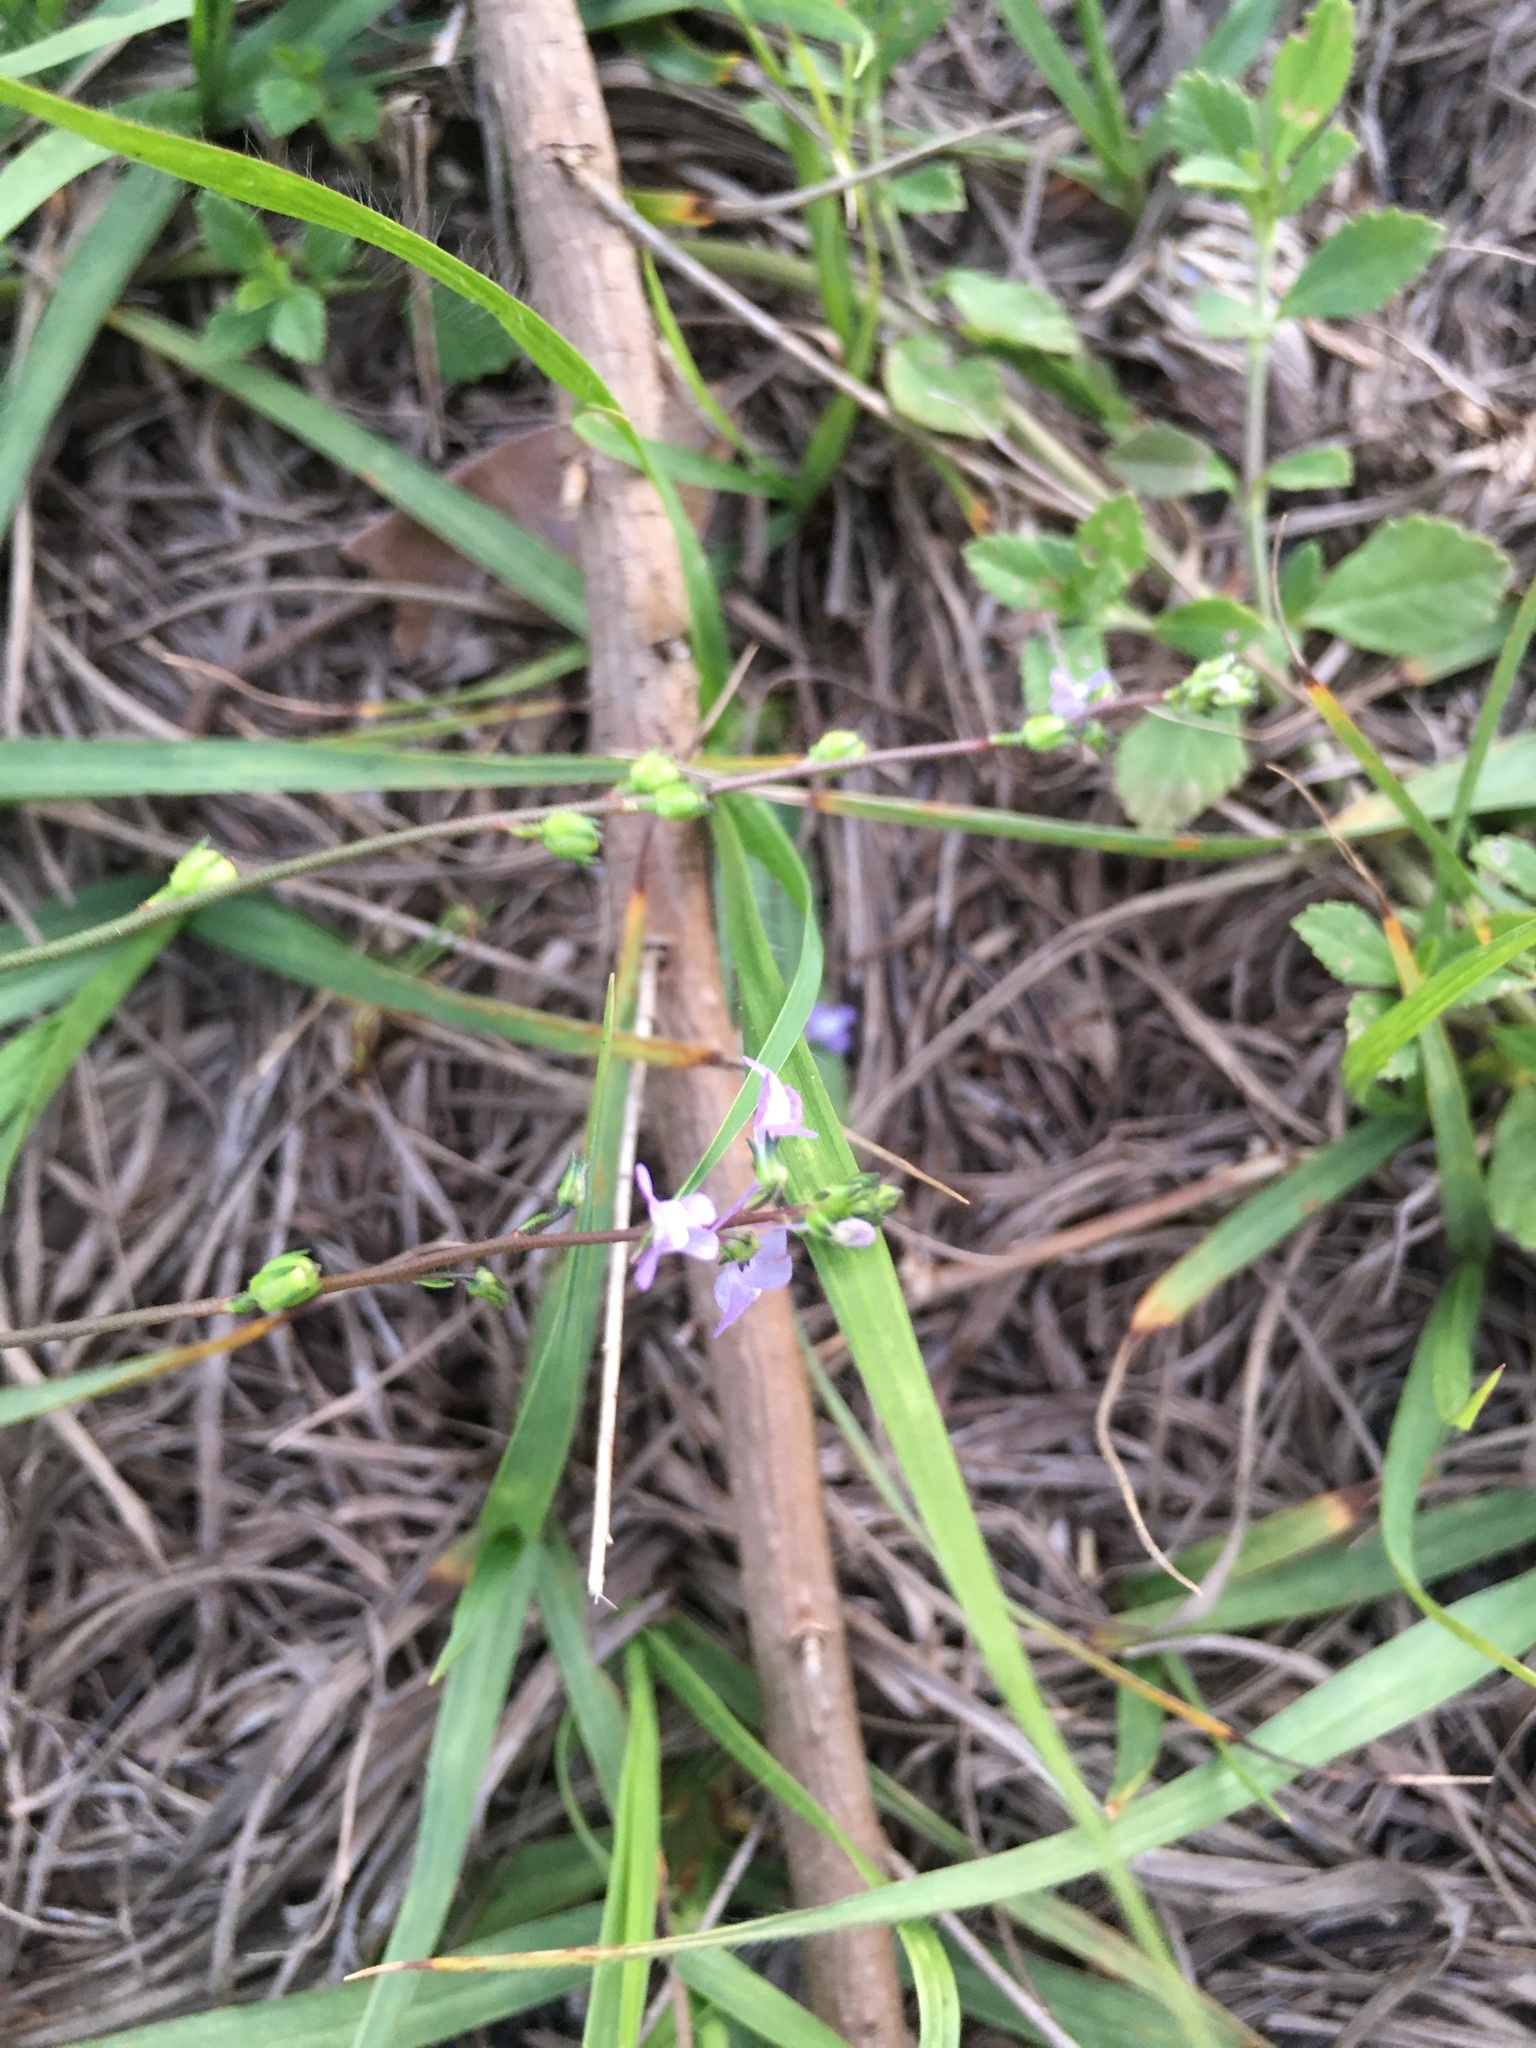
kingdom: Plantae
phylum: Tracheophyta
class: Magnoliopsida
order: Lamiales
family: Plantaginaceae
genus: Nuttallanthus
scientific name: Nuttallanthus canadensis
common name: Blue toadflax
